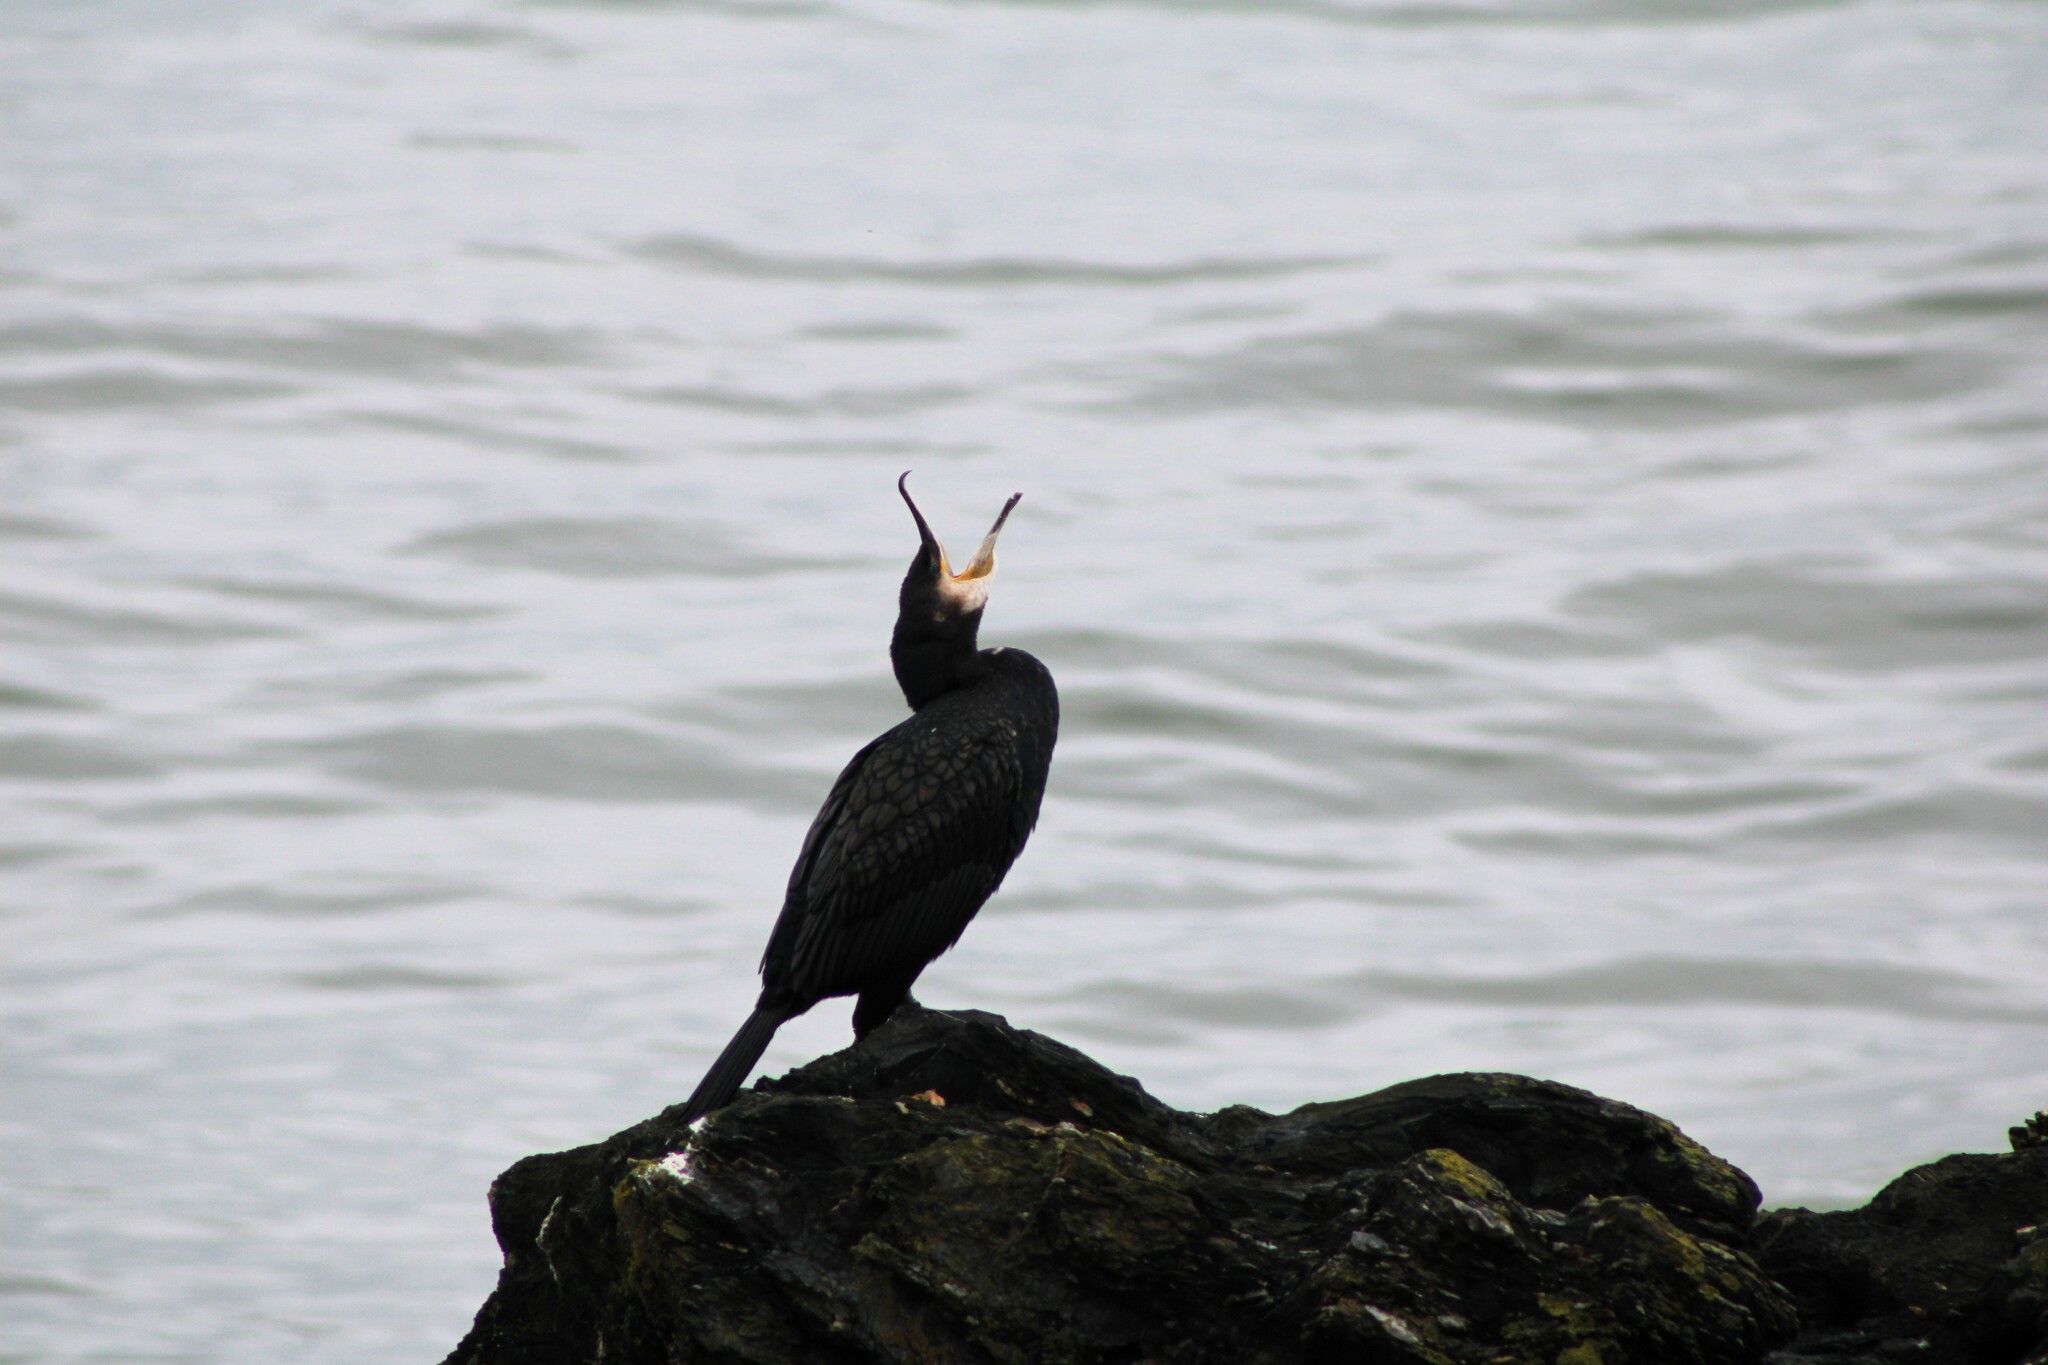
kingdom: Animalia
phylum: Chordata
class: Aves
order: Suliformes
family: Phalacrocoracidae
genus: Phalacrocorax
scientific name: Phalacrocorax carbo
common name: Great cormorant
